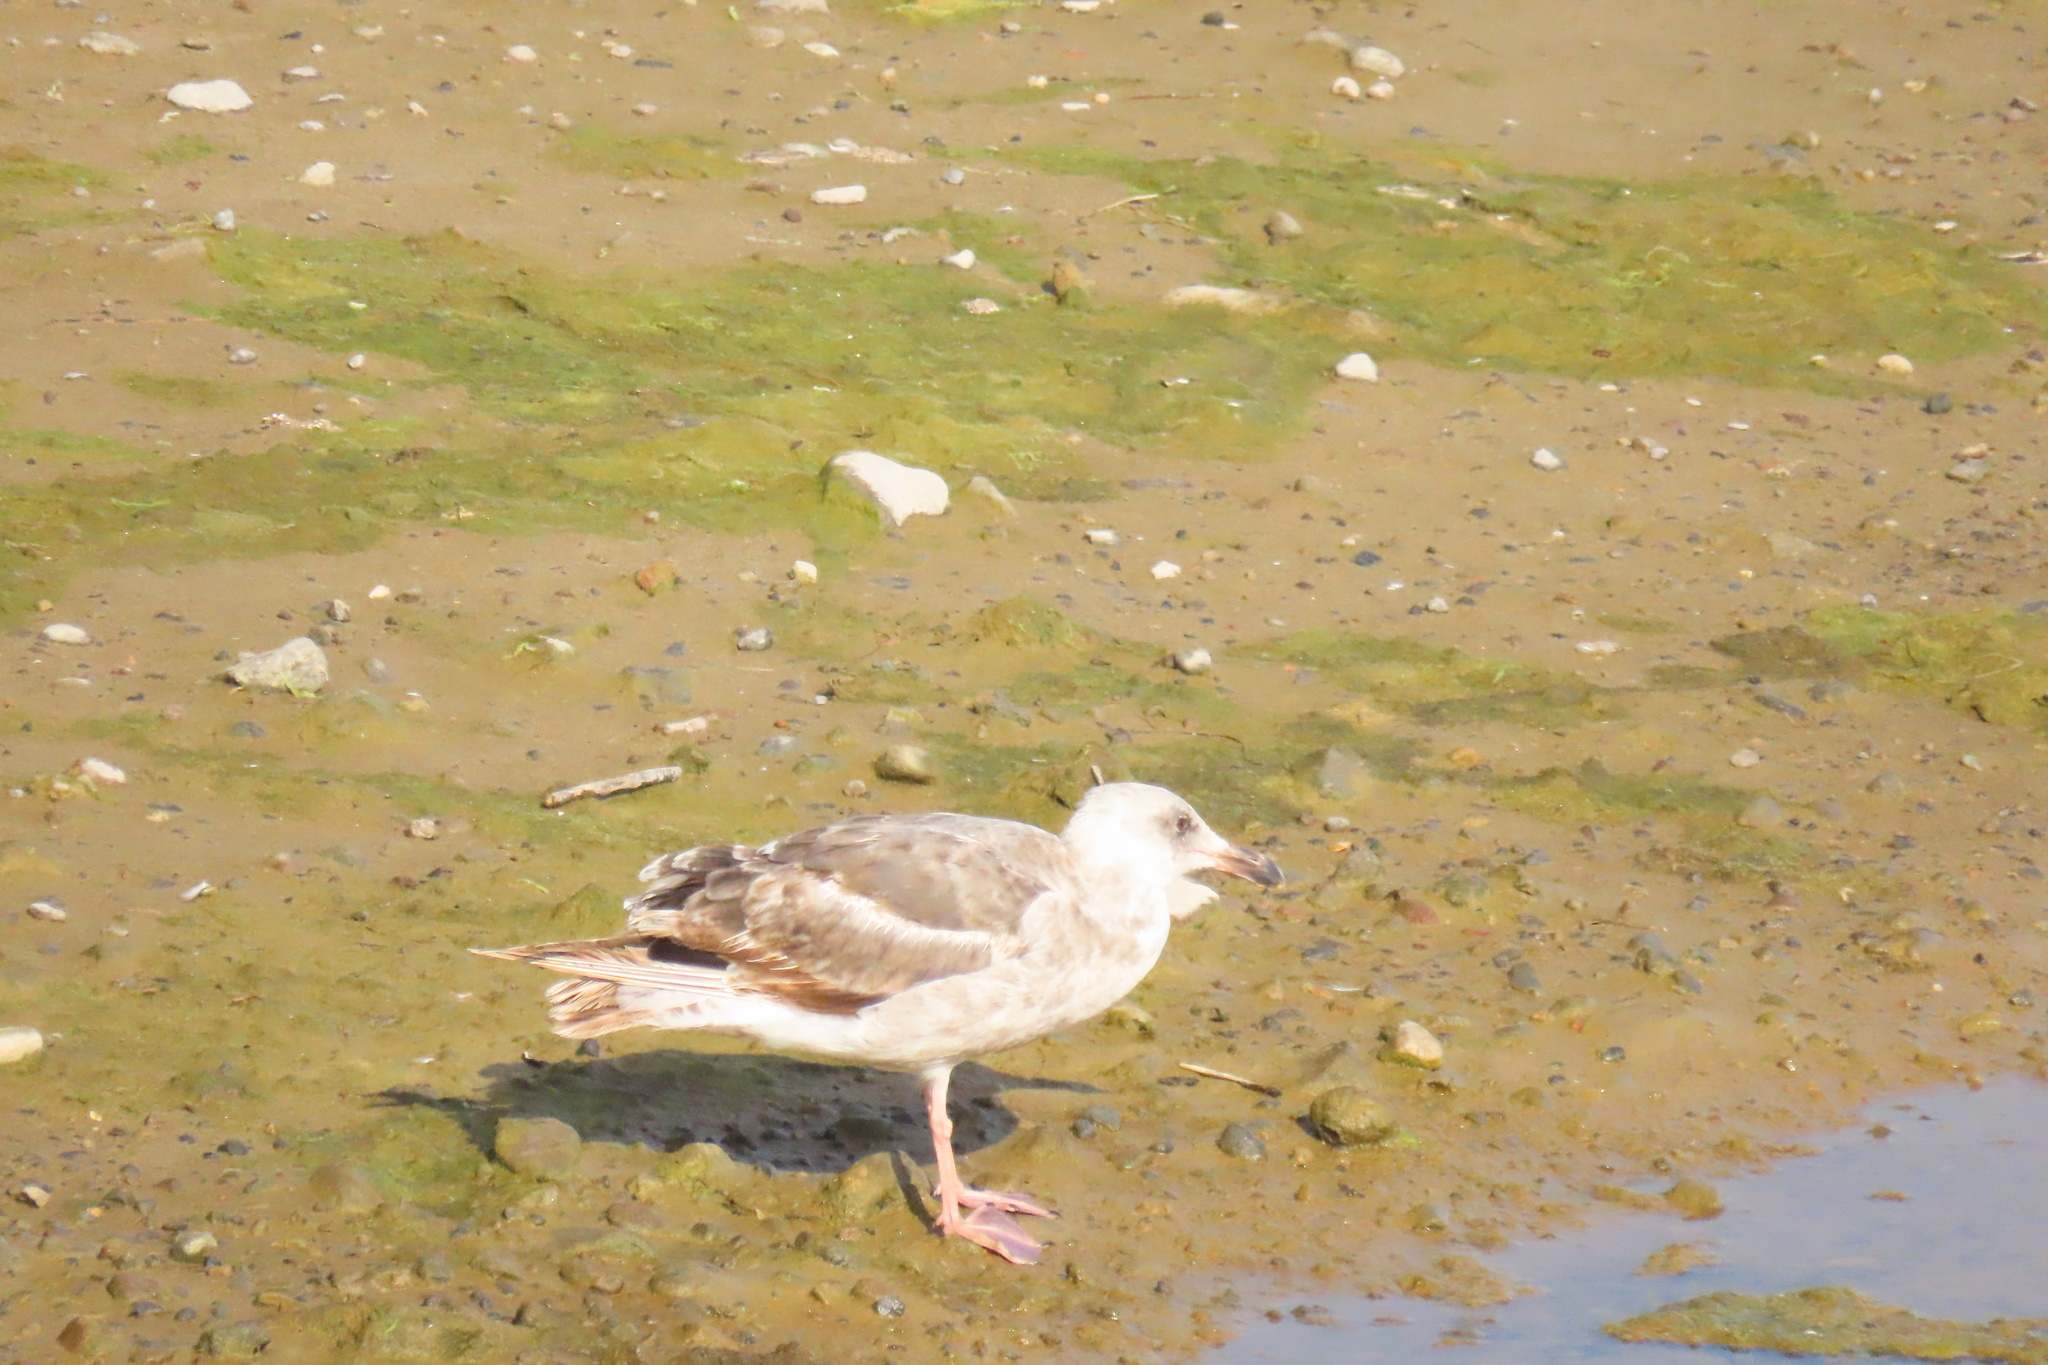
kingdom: Animalia
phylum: Chordata
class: Aves
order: Charadriiformes
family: Laridae
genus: Larus
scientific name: Larus occidentalis
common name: Western gull
